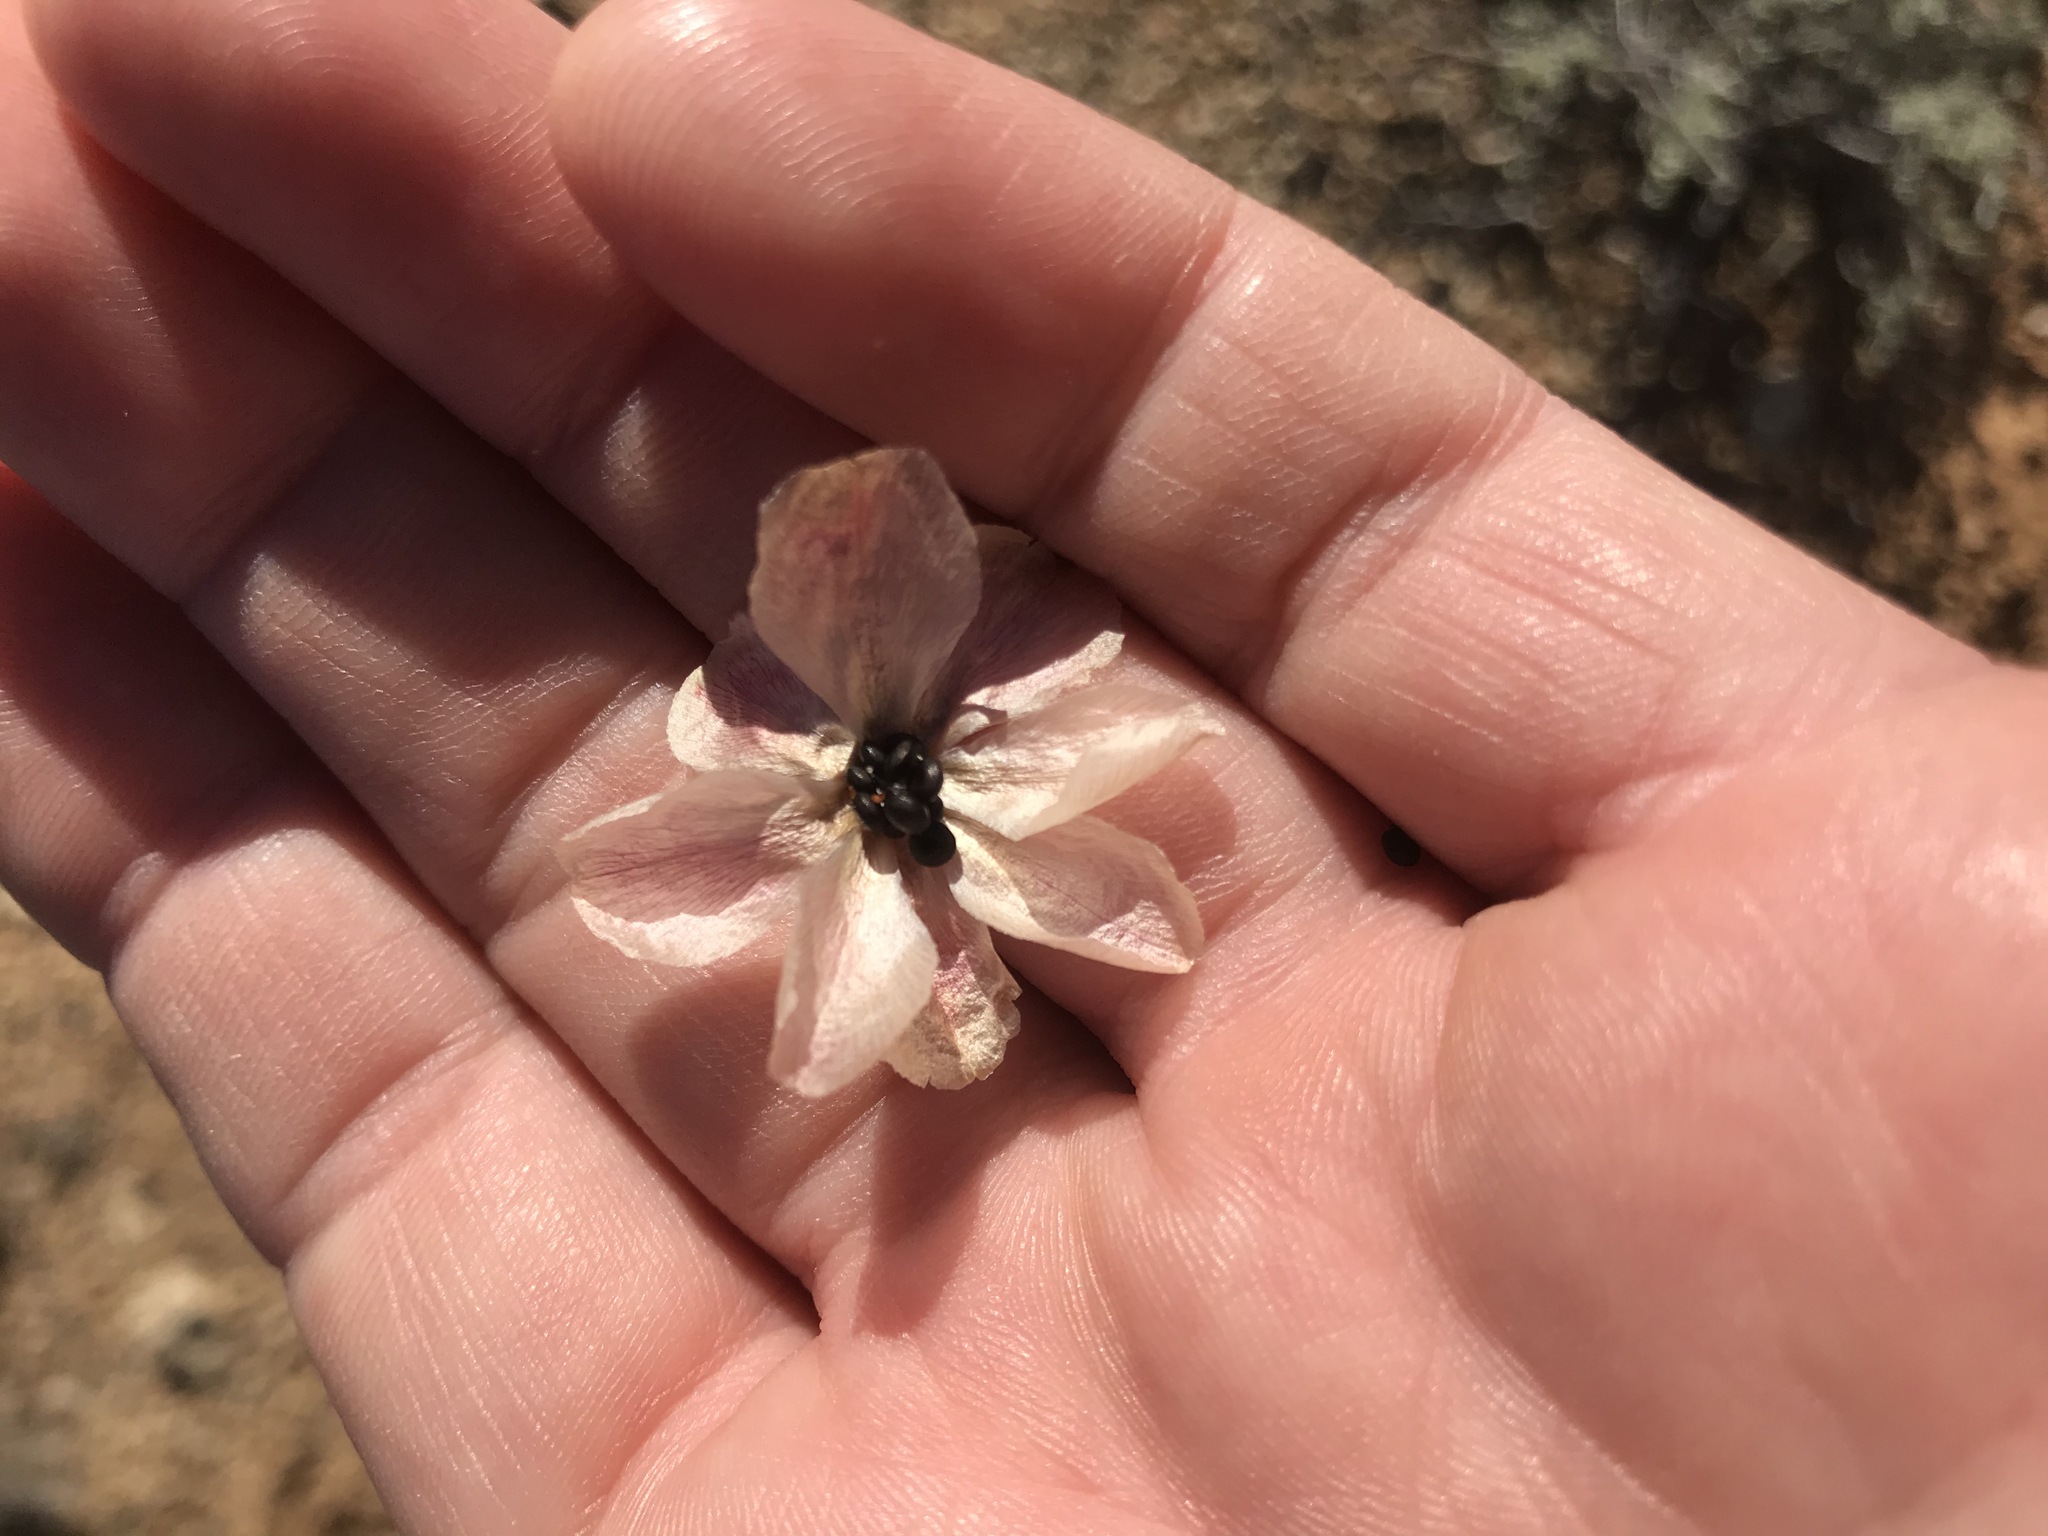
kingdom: Plantae
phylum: Tracheophyta
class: Magnoliopsida
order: Caryophyllales
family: Montiaceae
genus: Lewisia
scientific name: Lewisia rediviva
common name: Bitter-root
